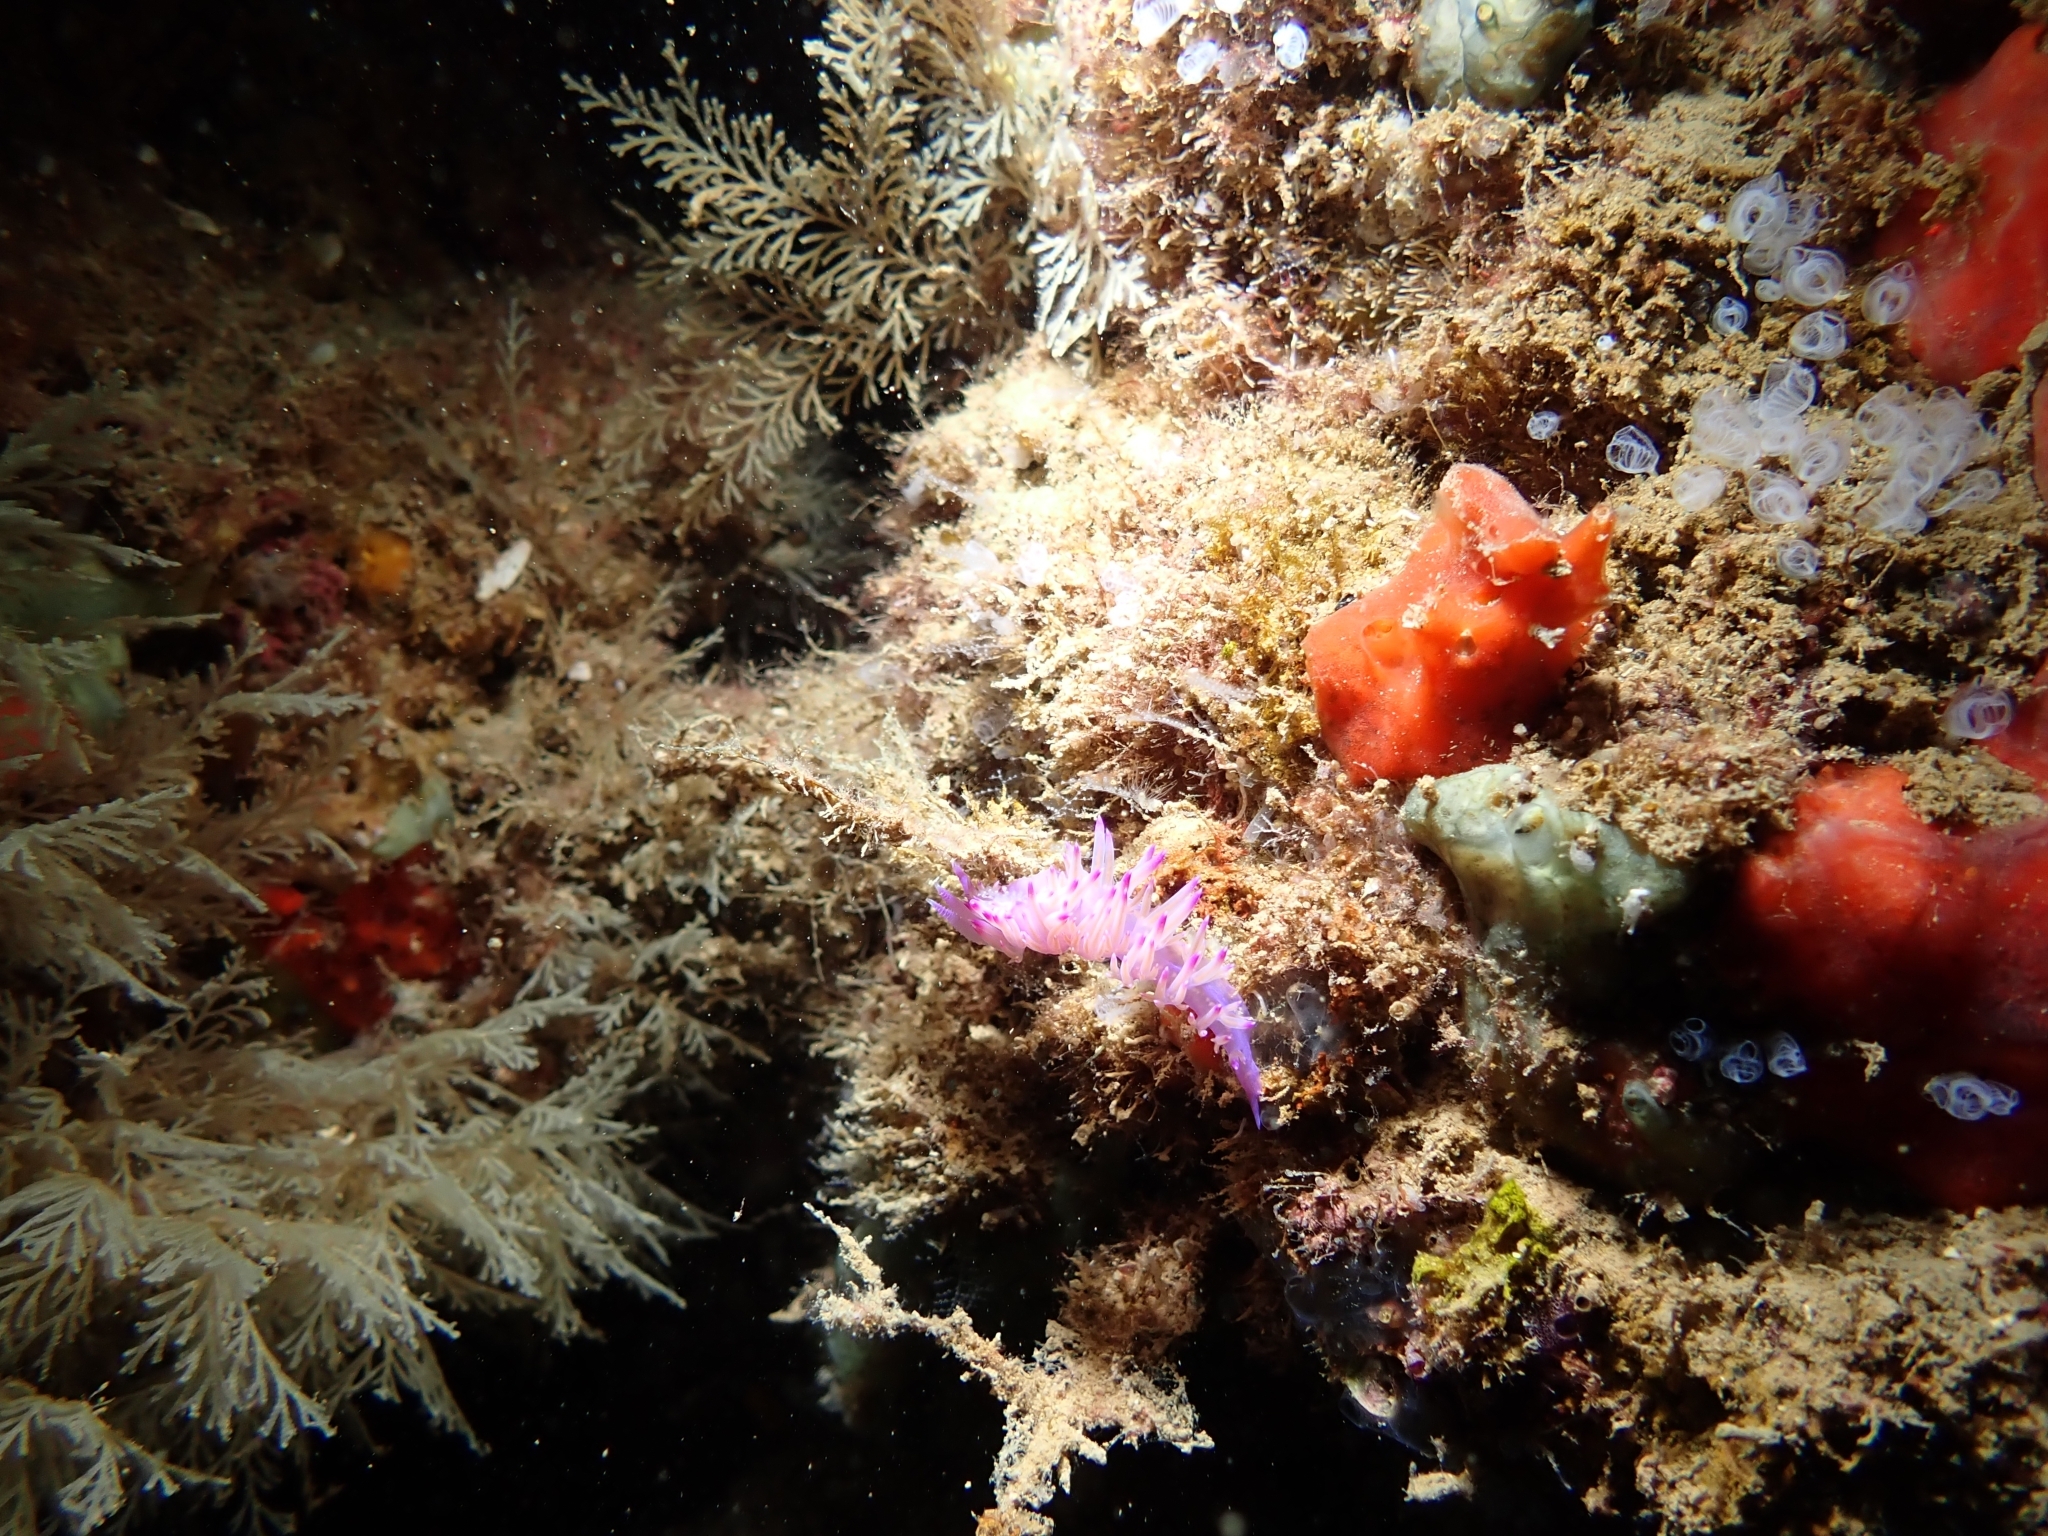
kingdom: Animalia
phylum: Mollusca
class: Gastropoda
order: Nudibranchia
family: Flabellinidae
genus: Flabellina
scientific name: Flabellina affinis
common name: Mediterranean violet aeolid
